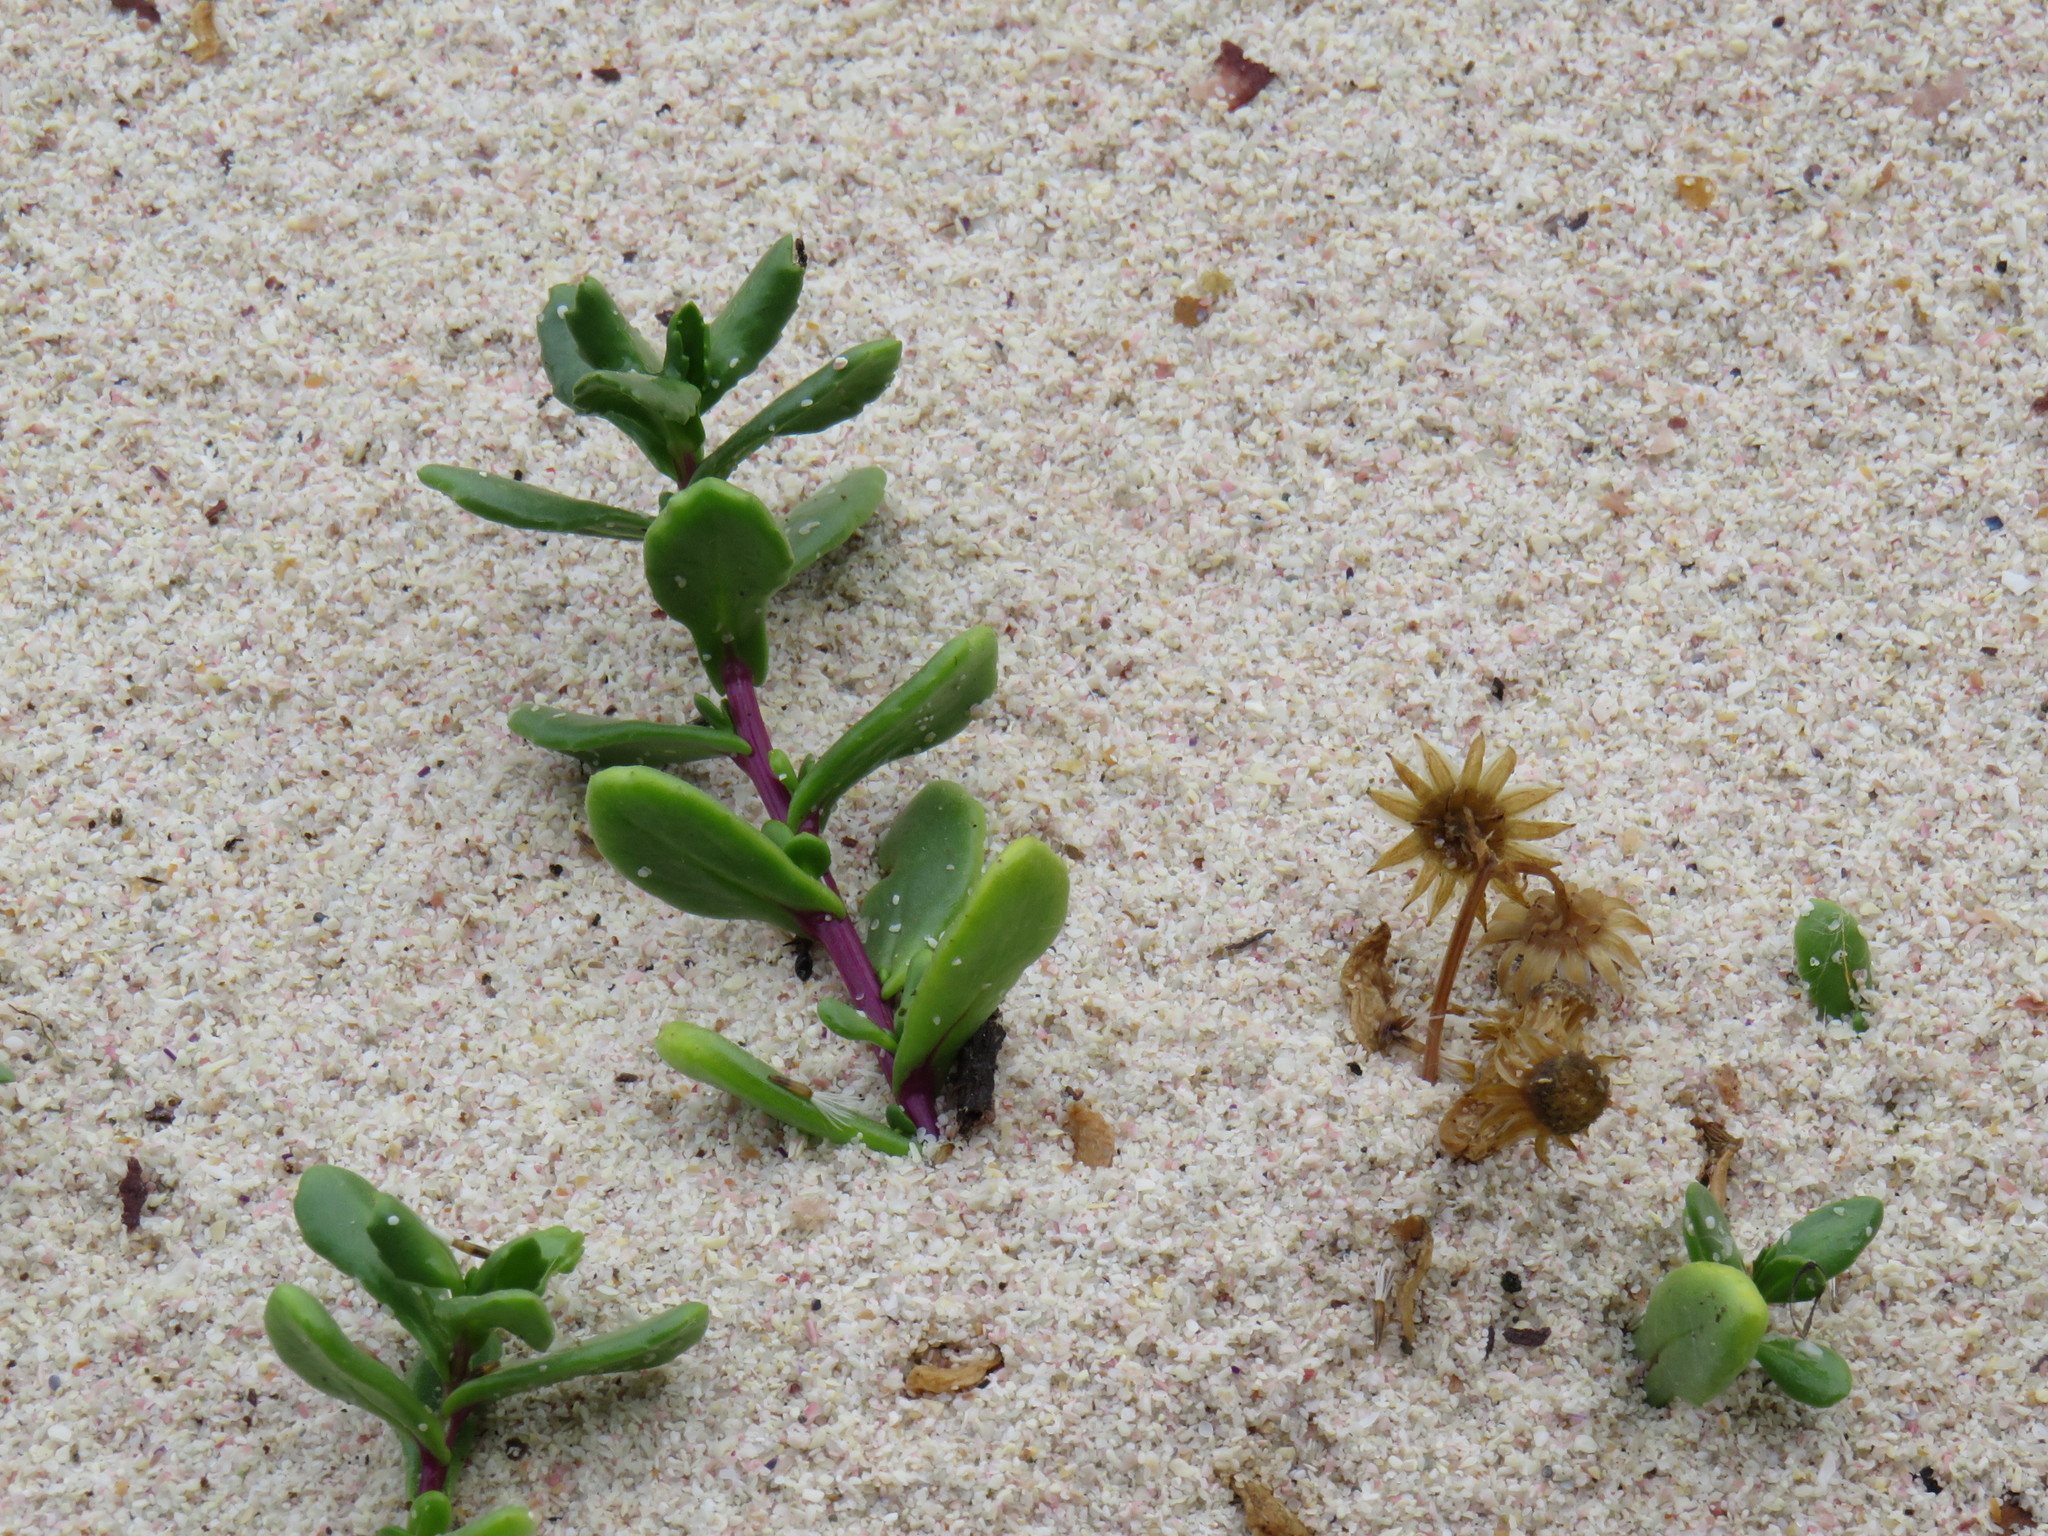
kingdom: Plantae
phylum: Tracheophyta
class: Magnoliopsida
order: Asterales
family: Asteraceae
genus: Senecio
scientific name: Senecio maritimus
